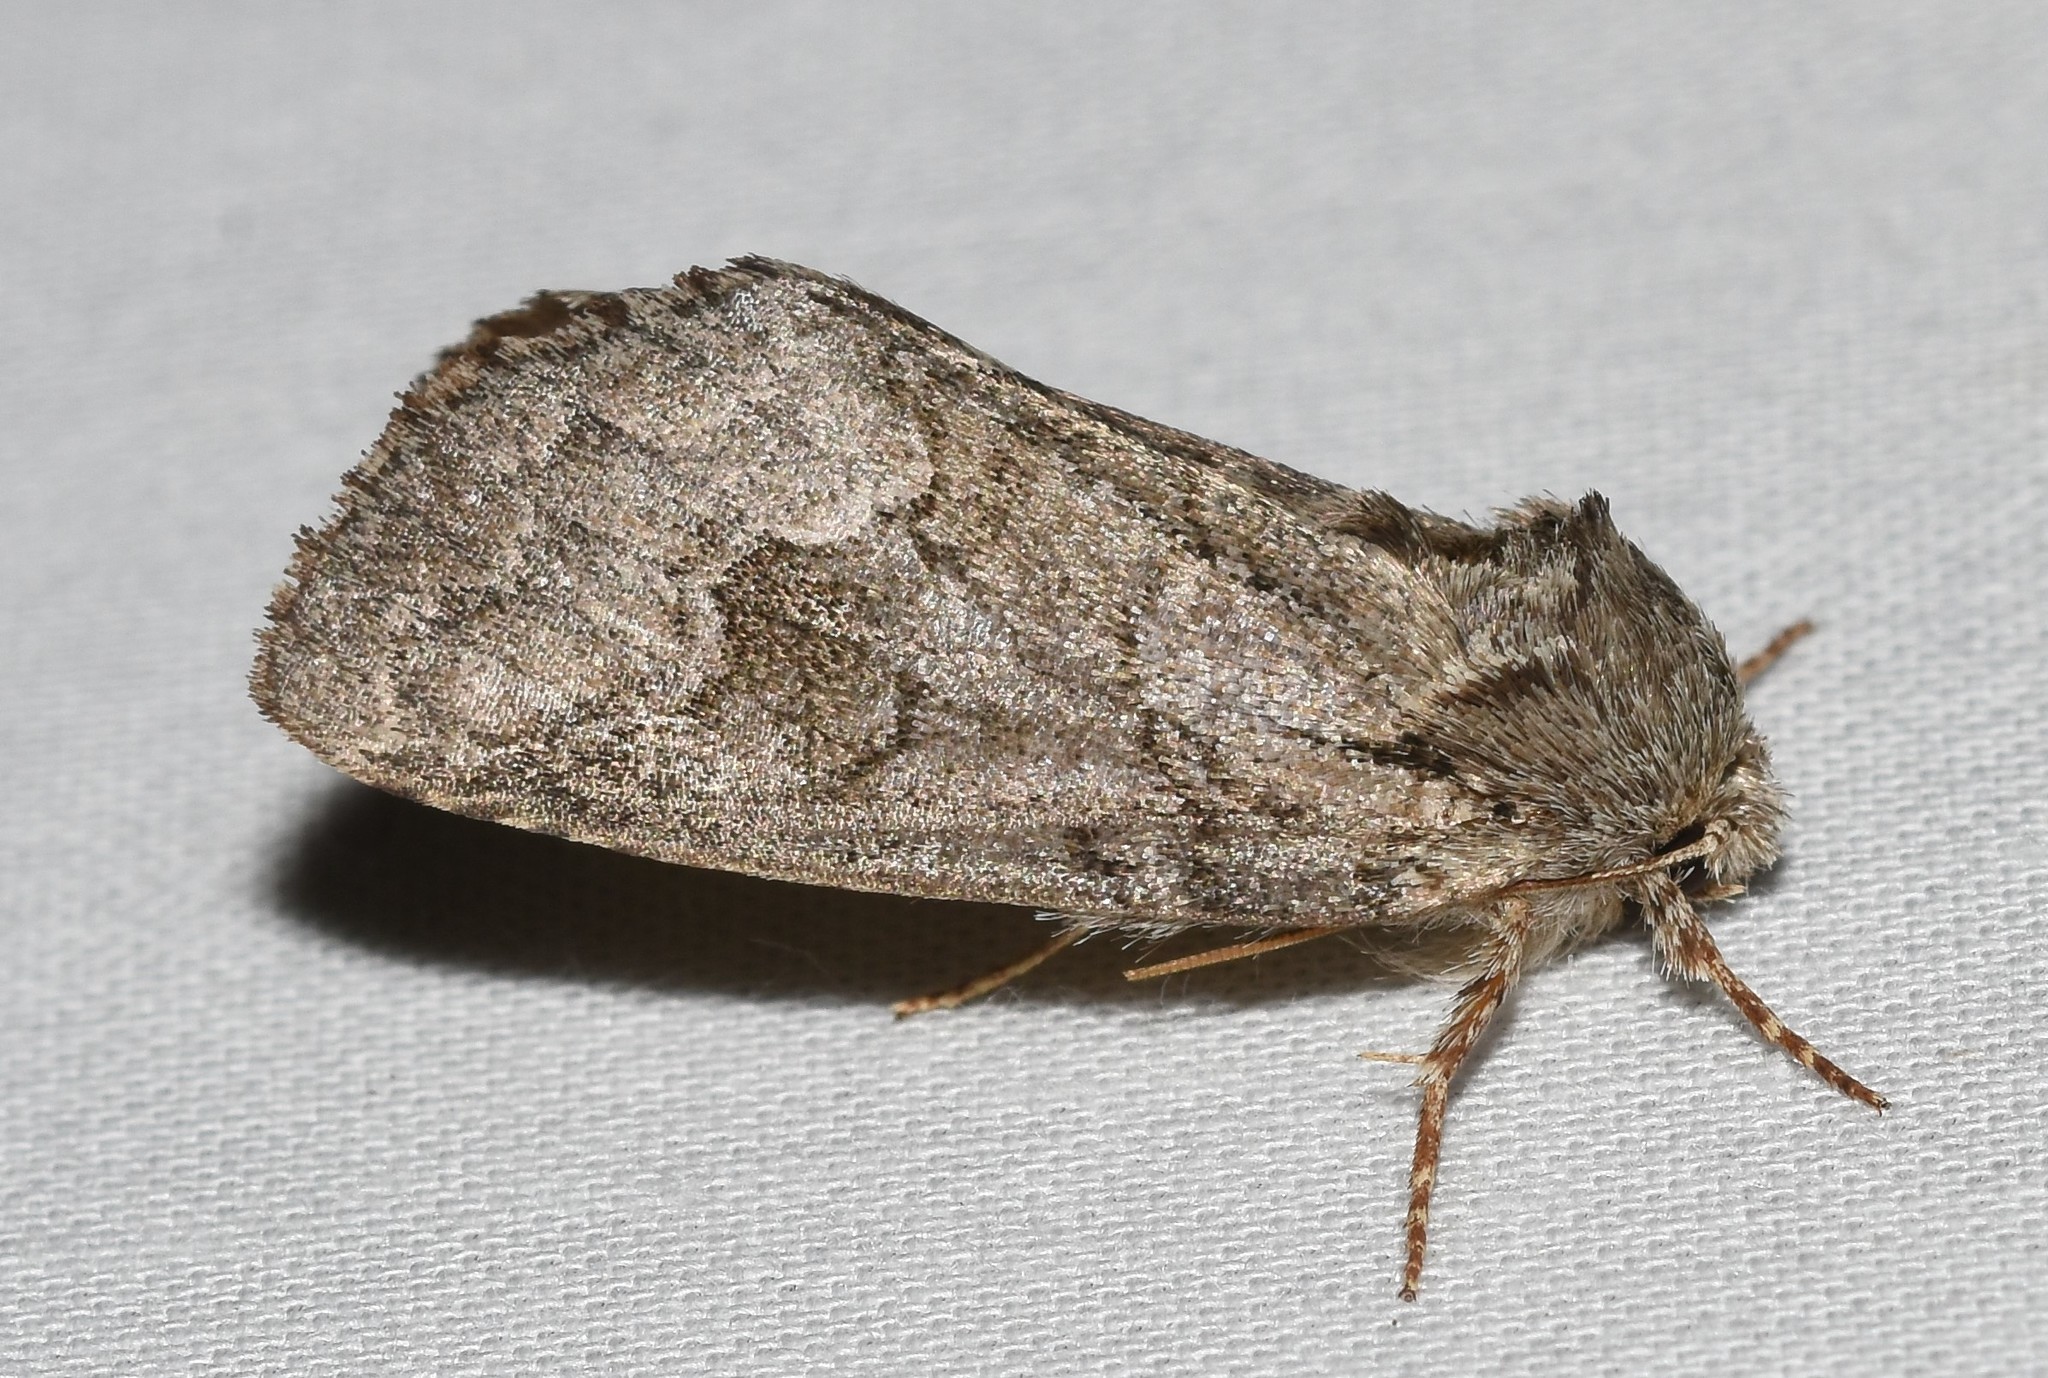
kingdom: Animalia
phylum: Arthropoda
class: Insecta
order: Lepidoptera
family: Notodontidae
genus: Lochmaeus
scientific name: Lochmaeus bilineata
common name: Double-lined prominent
